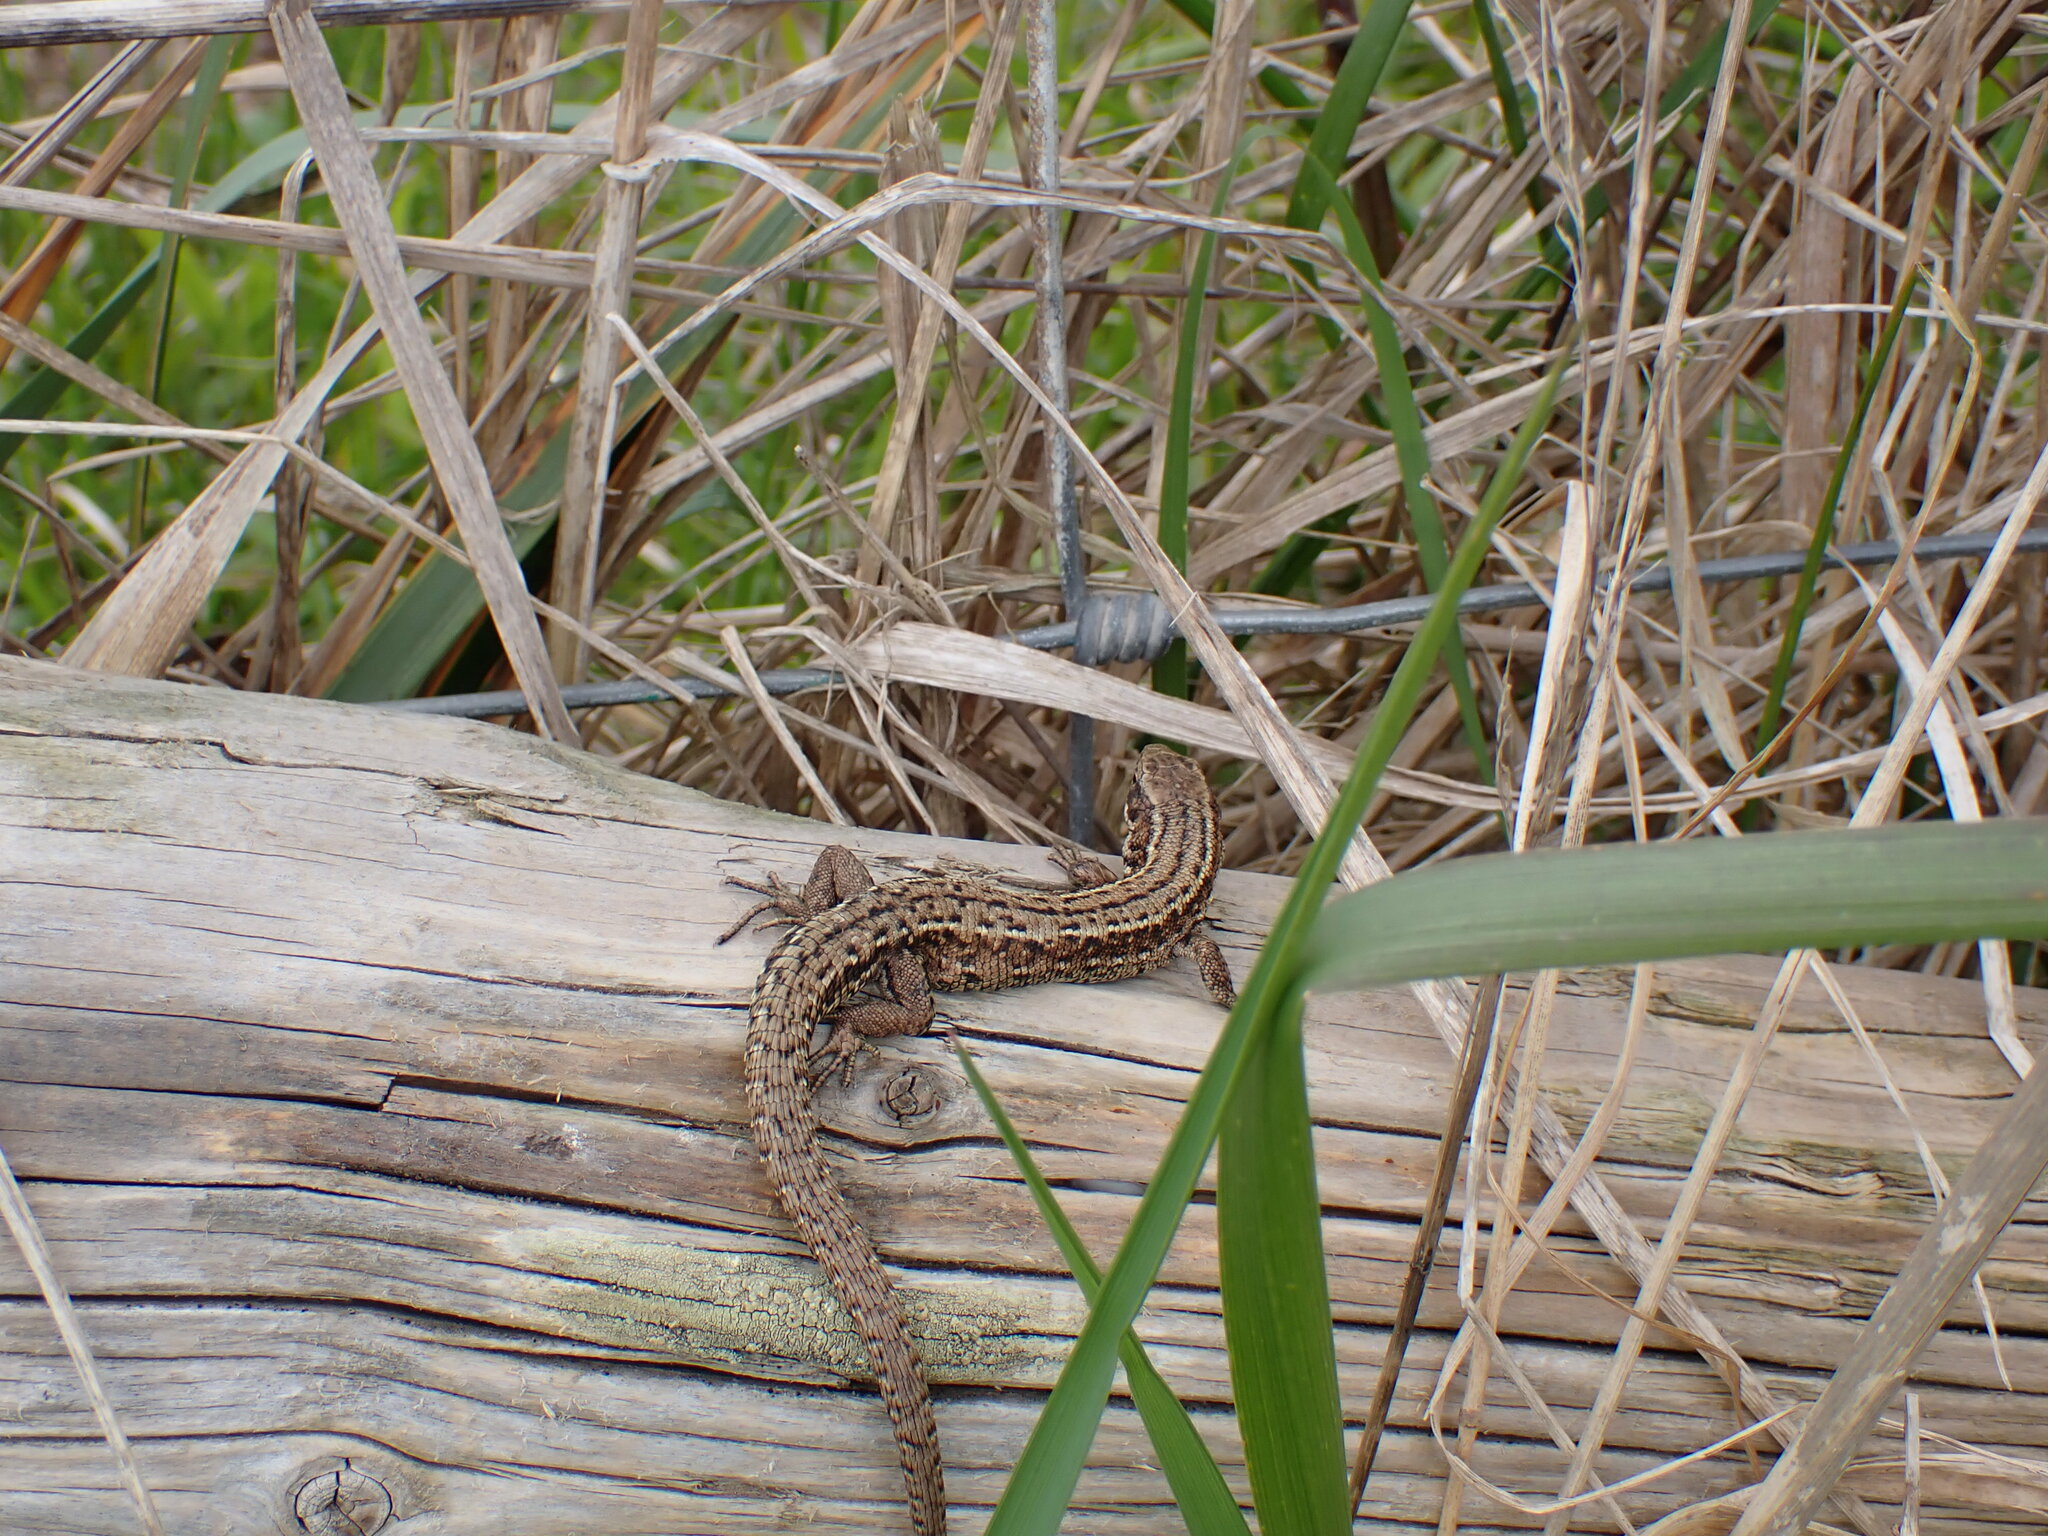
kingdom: Animalia
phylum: Chordata
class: Squamata
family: Lacertidae
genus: Zootoca
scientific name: Zootoca vivipara
